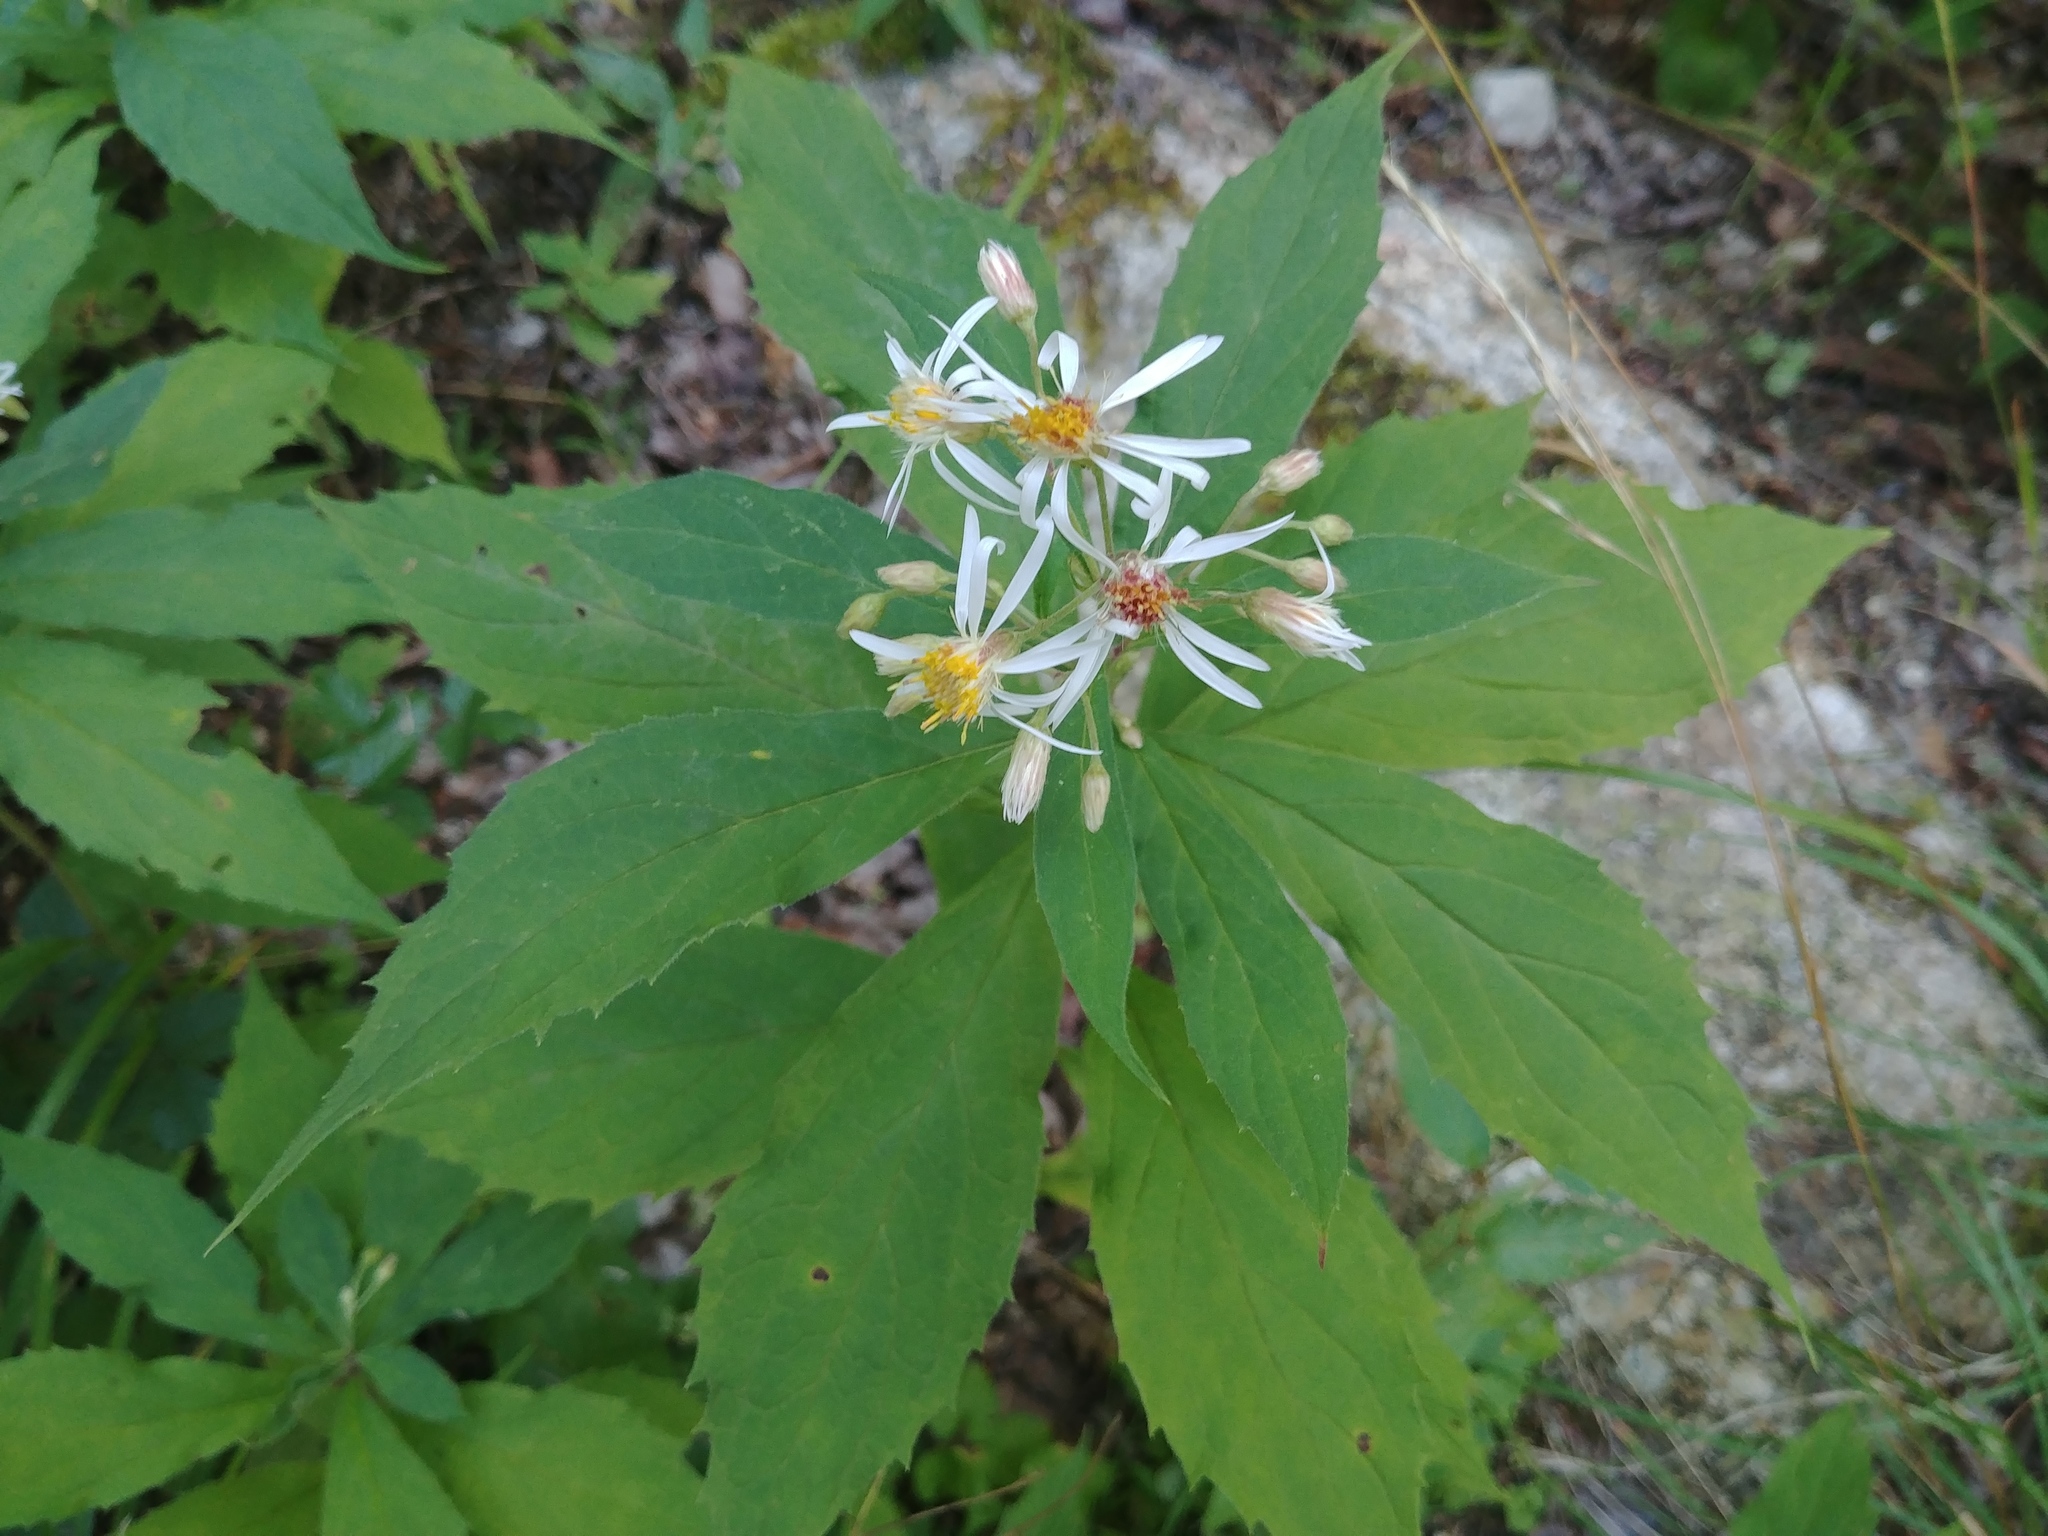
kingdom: Plantae
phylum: Tracheophyta
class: Magnoliopsida
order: Asterales
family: Asteraceae
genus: Oclemena
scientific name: Oclemena acuminata
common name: Mountain aster
